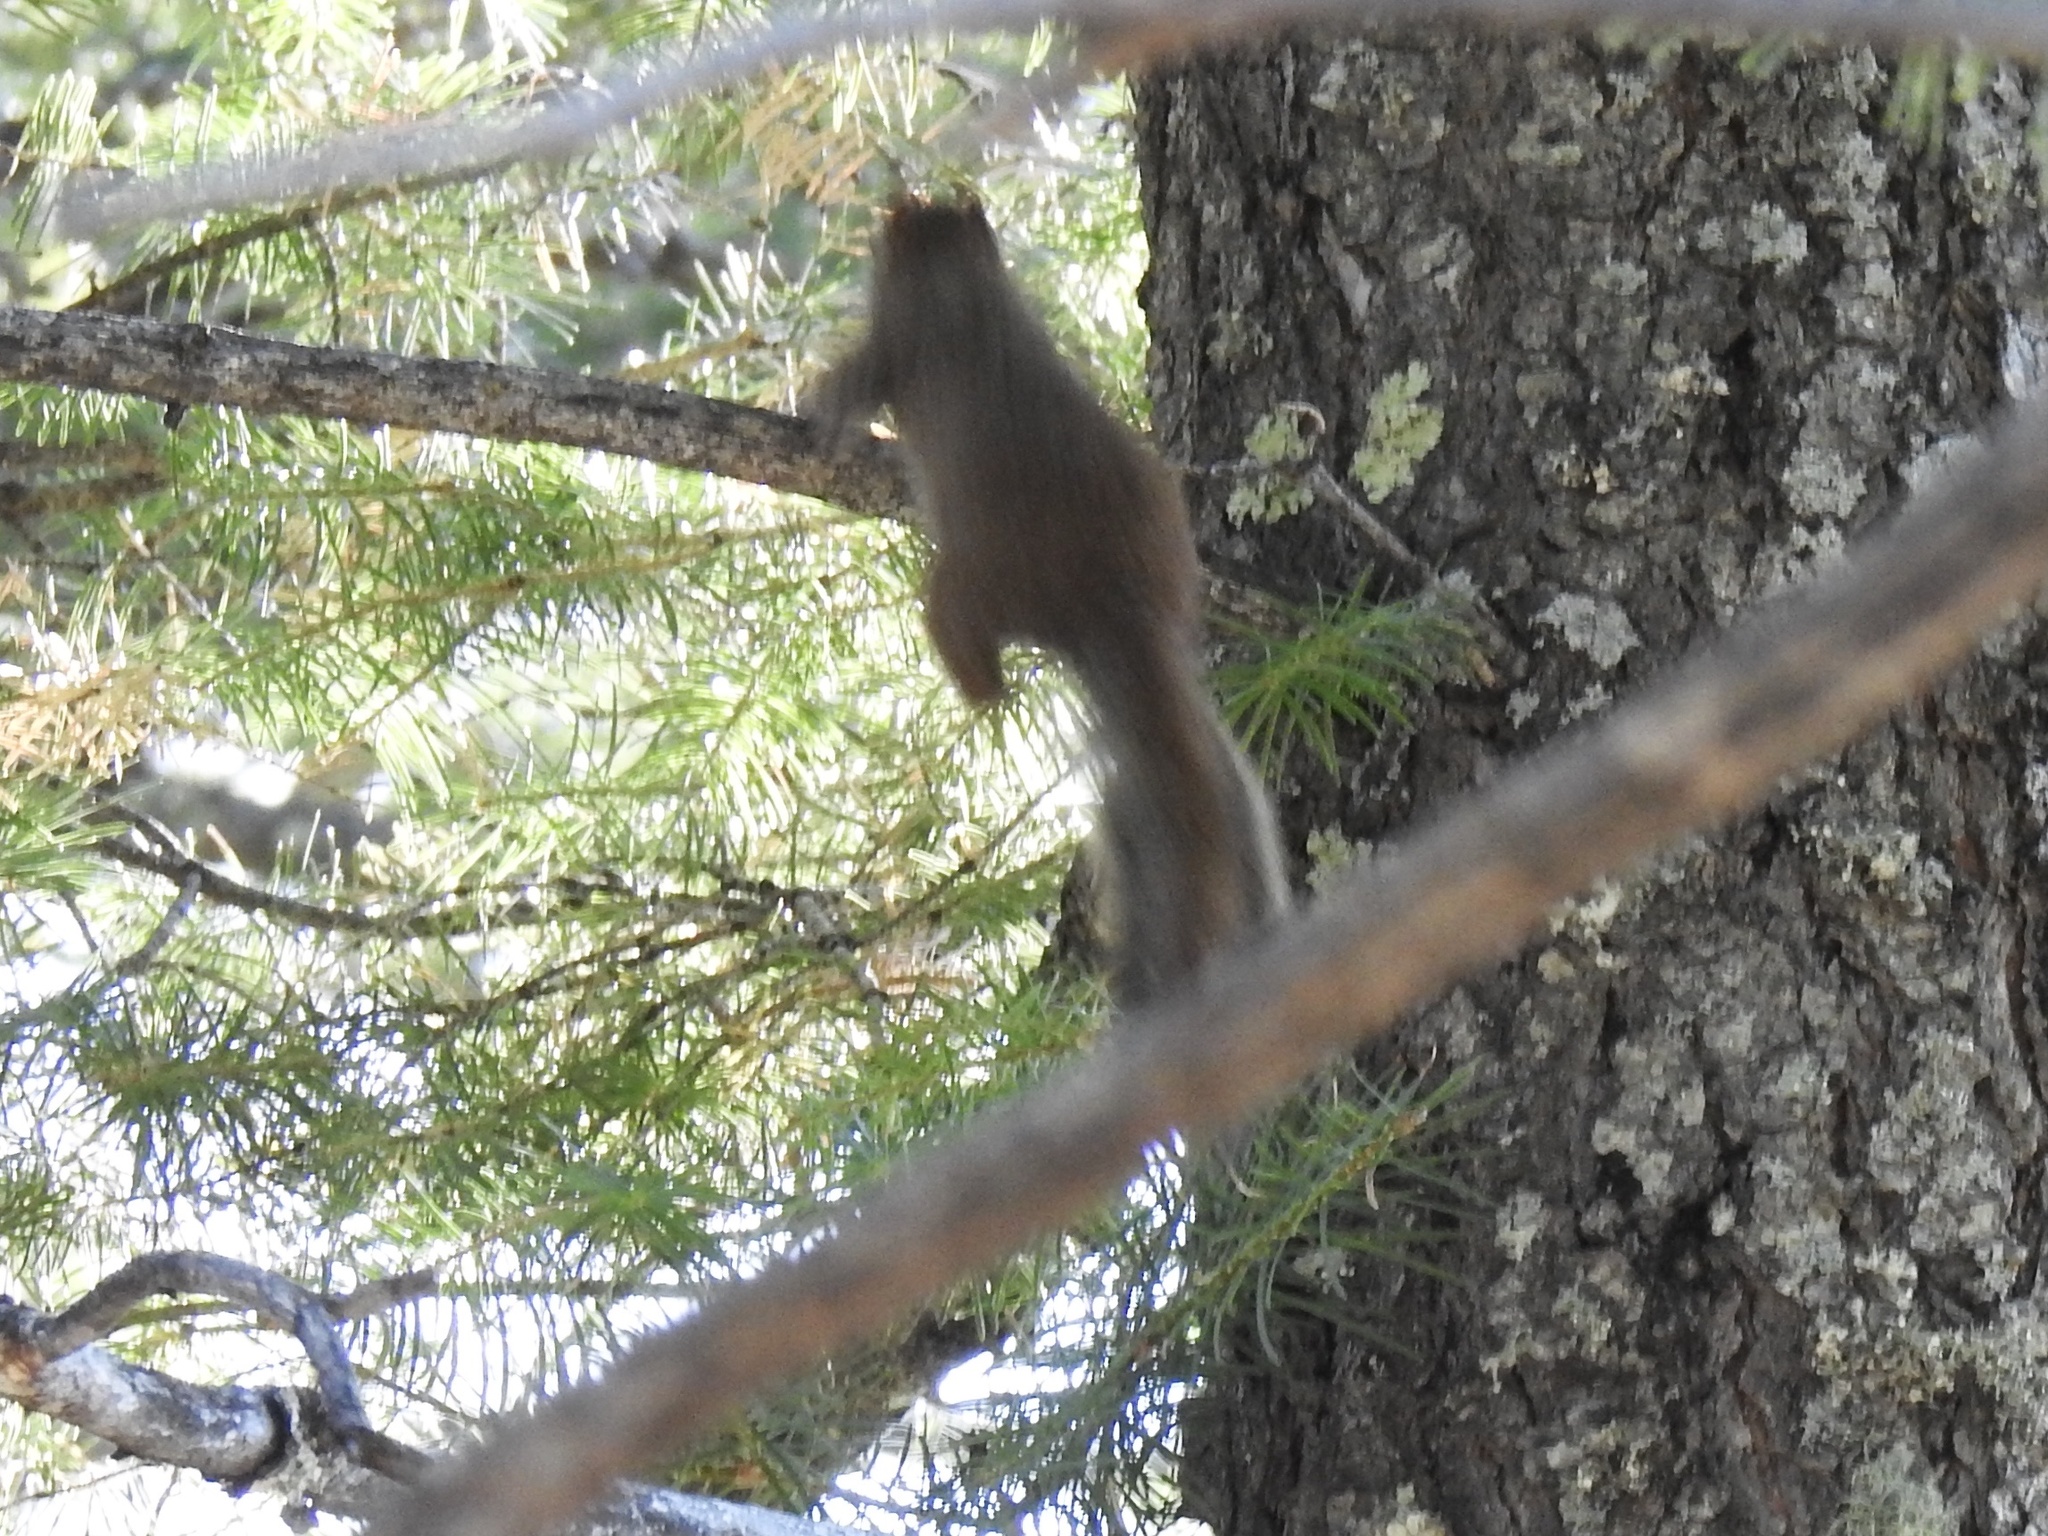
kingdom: Animalia
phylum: Chordata
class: Mammalia
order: Rodentia
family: Sciuridae
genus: Tamiasciurus
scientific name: Tamiasciurus hudsonicus
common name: Red squirrel
